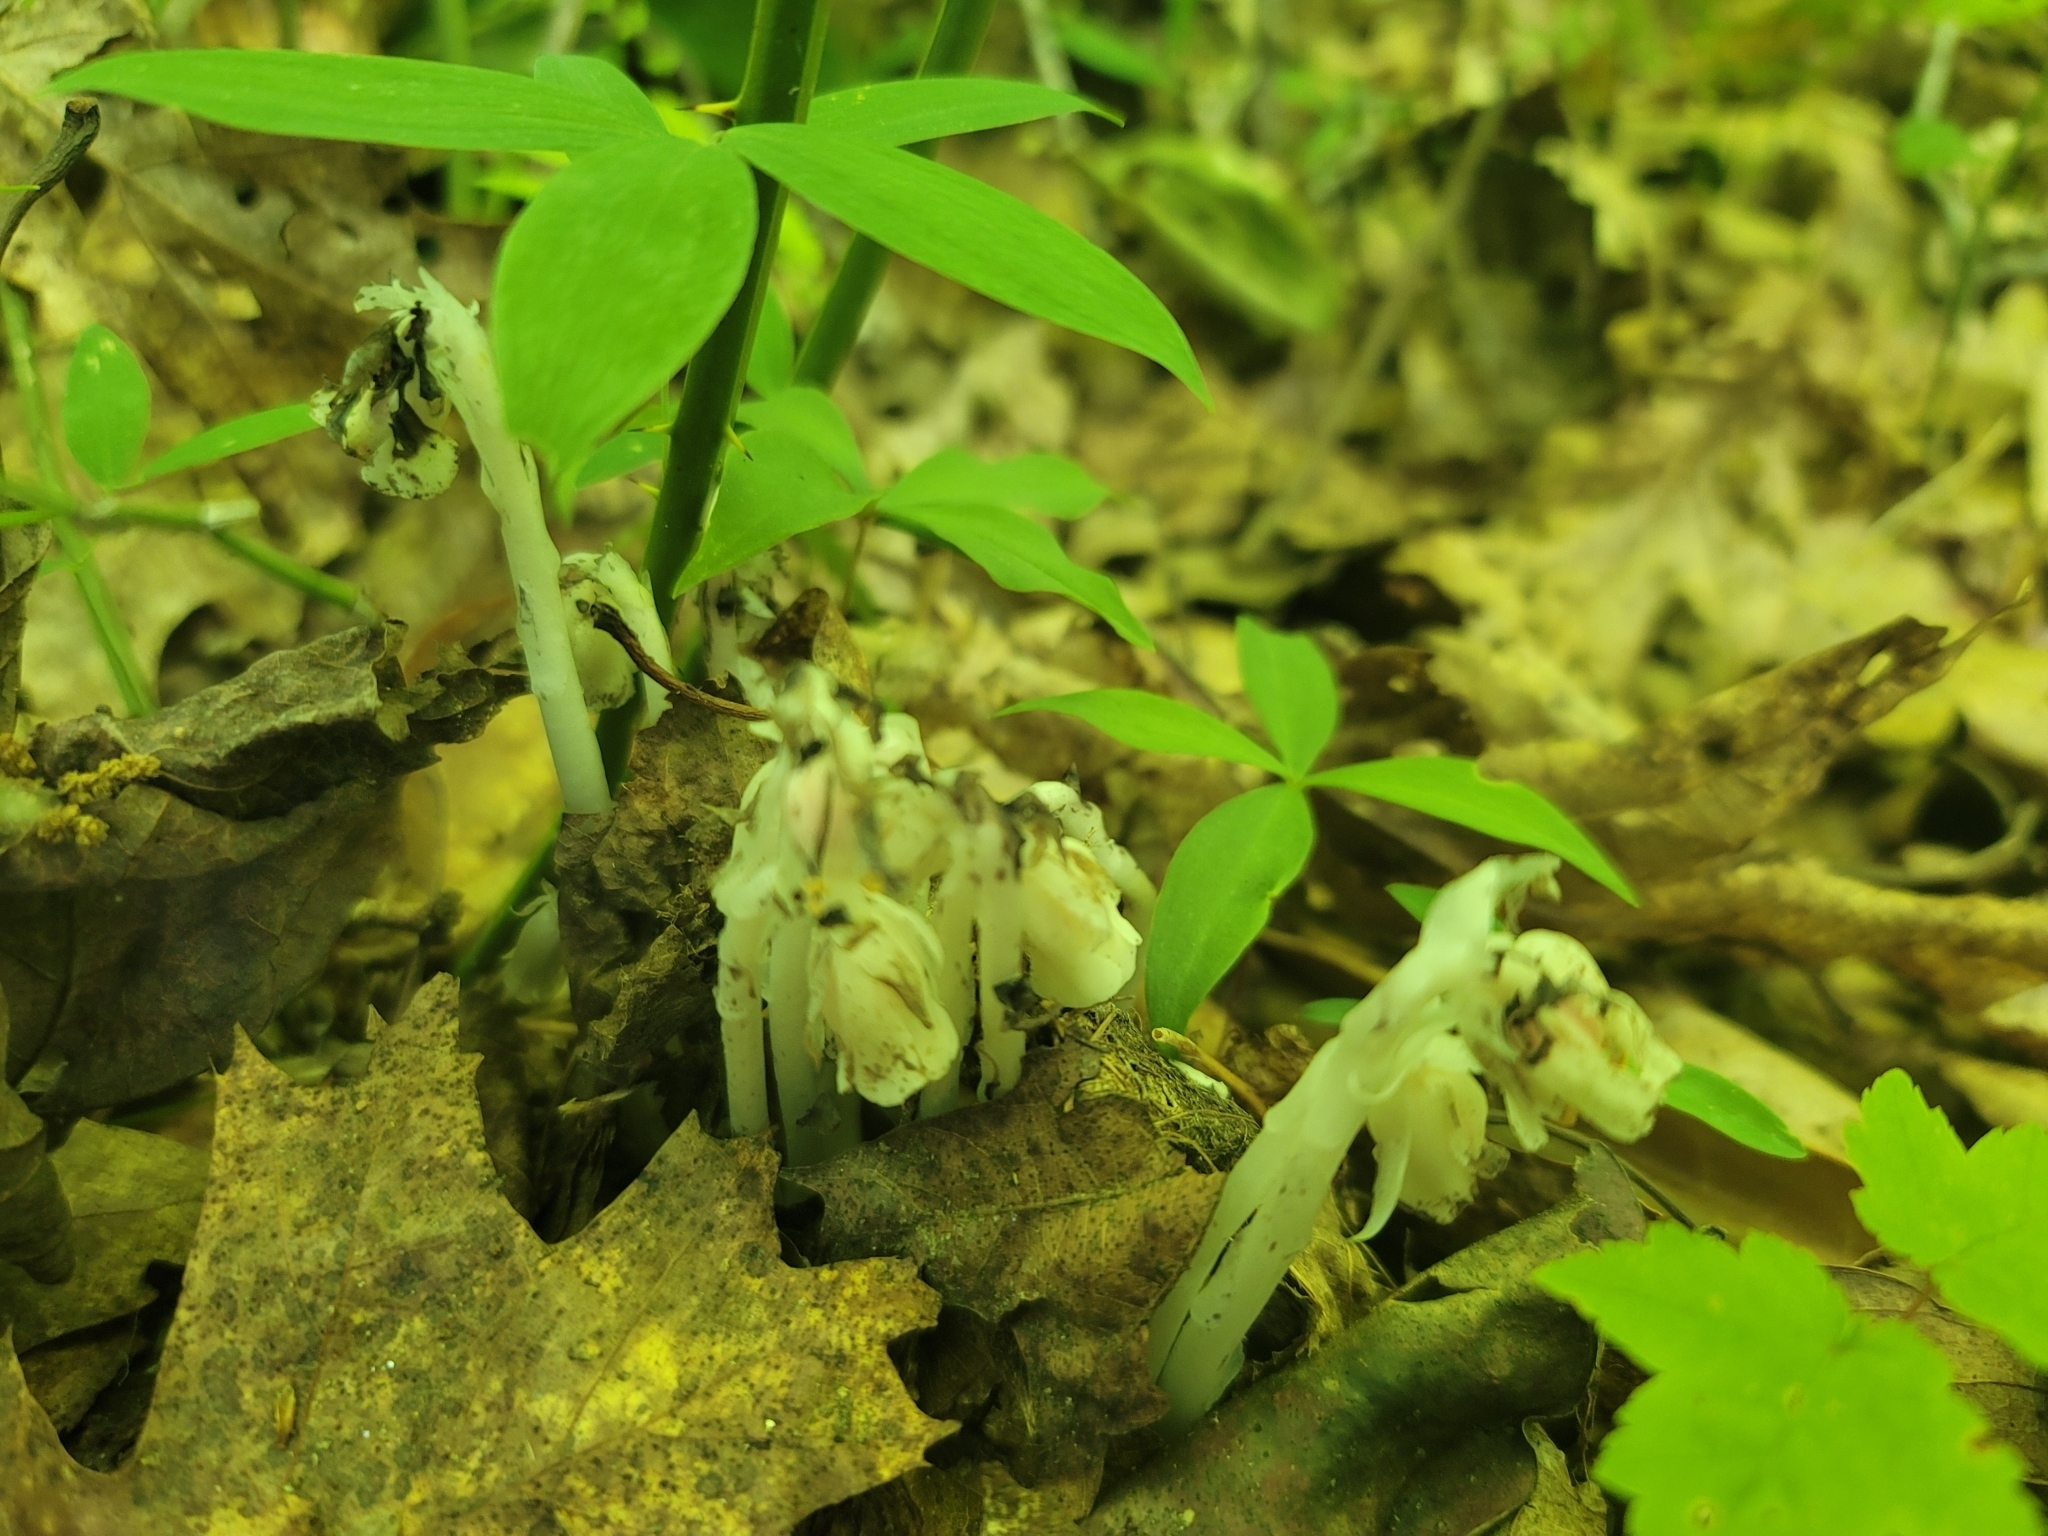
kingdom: Plantae
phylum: Tracheophyta
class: Magnoliopsida
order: Ericales
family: Ericaceae
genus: Monotropa
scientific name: Monotropa uniflora
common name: Convulsion root
